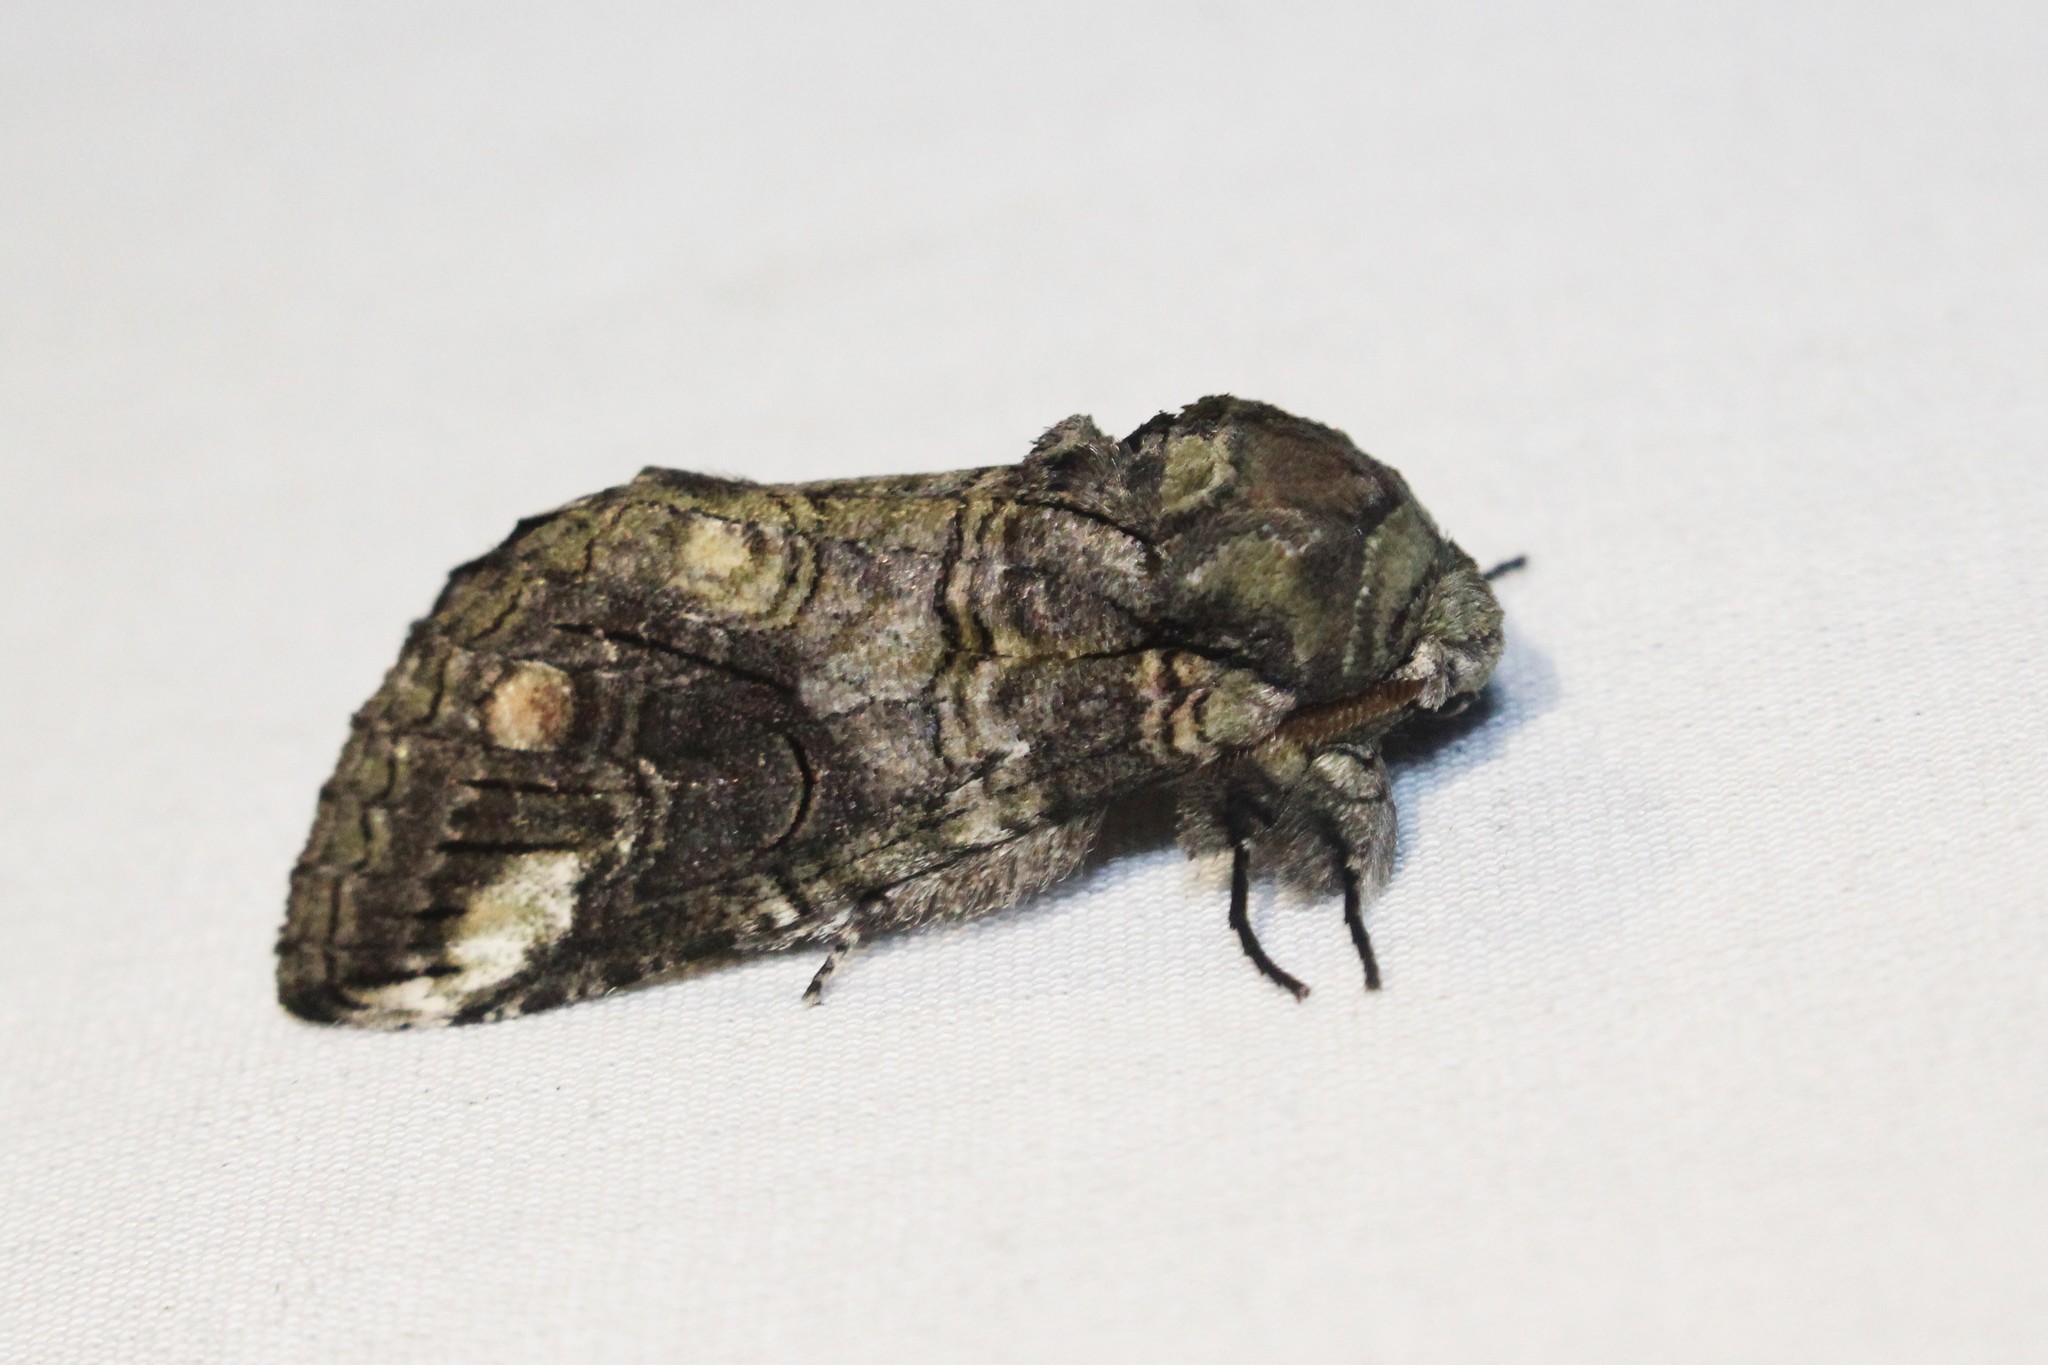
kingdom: Animalia
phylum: Arthropoda
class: Insecta
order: Lepidoptera
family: Notodontidae
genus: Heterocampa
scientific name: Heterocampa obliqua
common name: Oblique heterocampa
